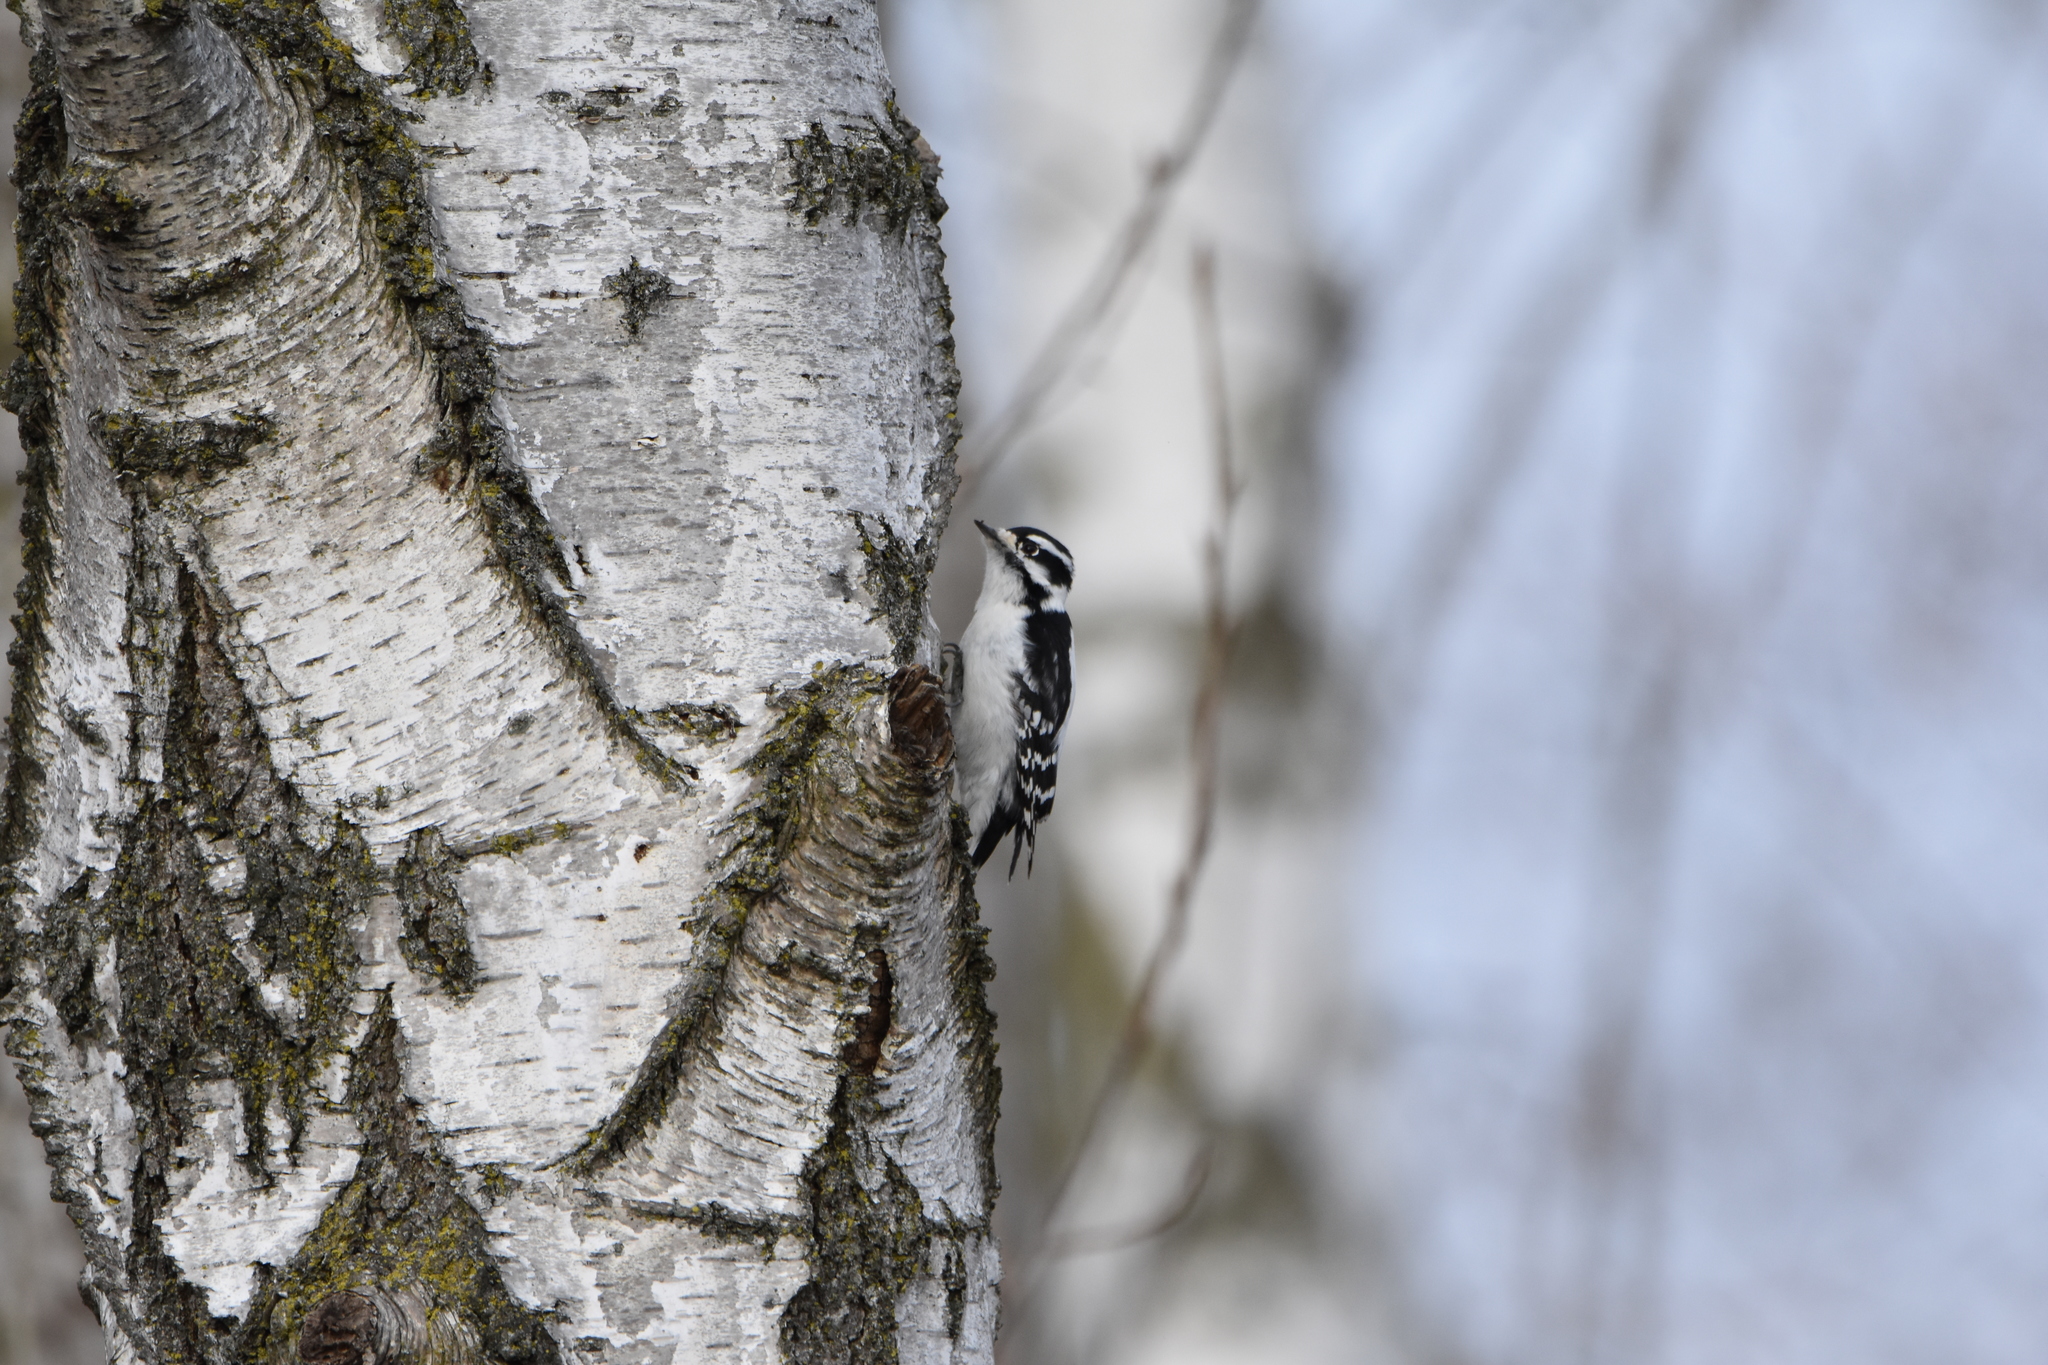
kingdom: Animalia
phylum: Chordata
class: Aves
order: Piciformes
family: Picidae
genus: Dryobates
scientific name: Dryobates pubescens
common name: Downy woodpecker
